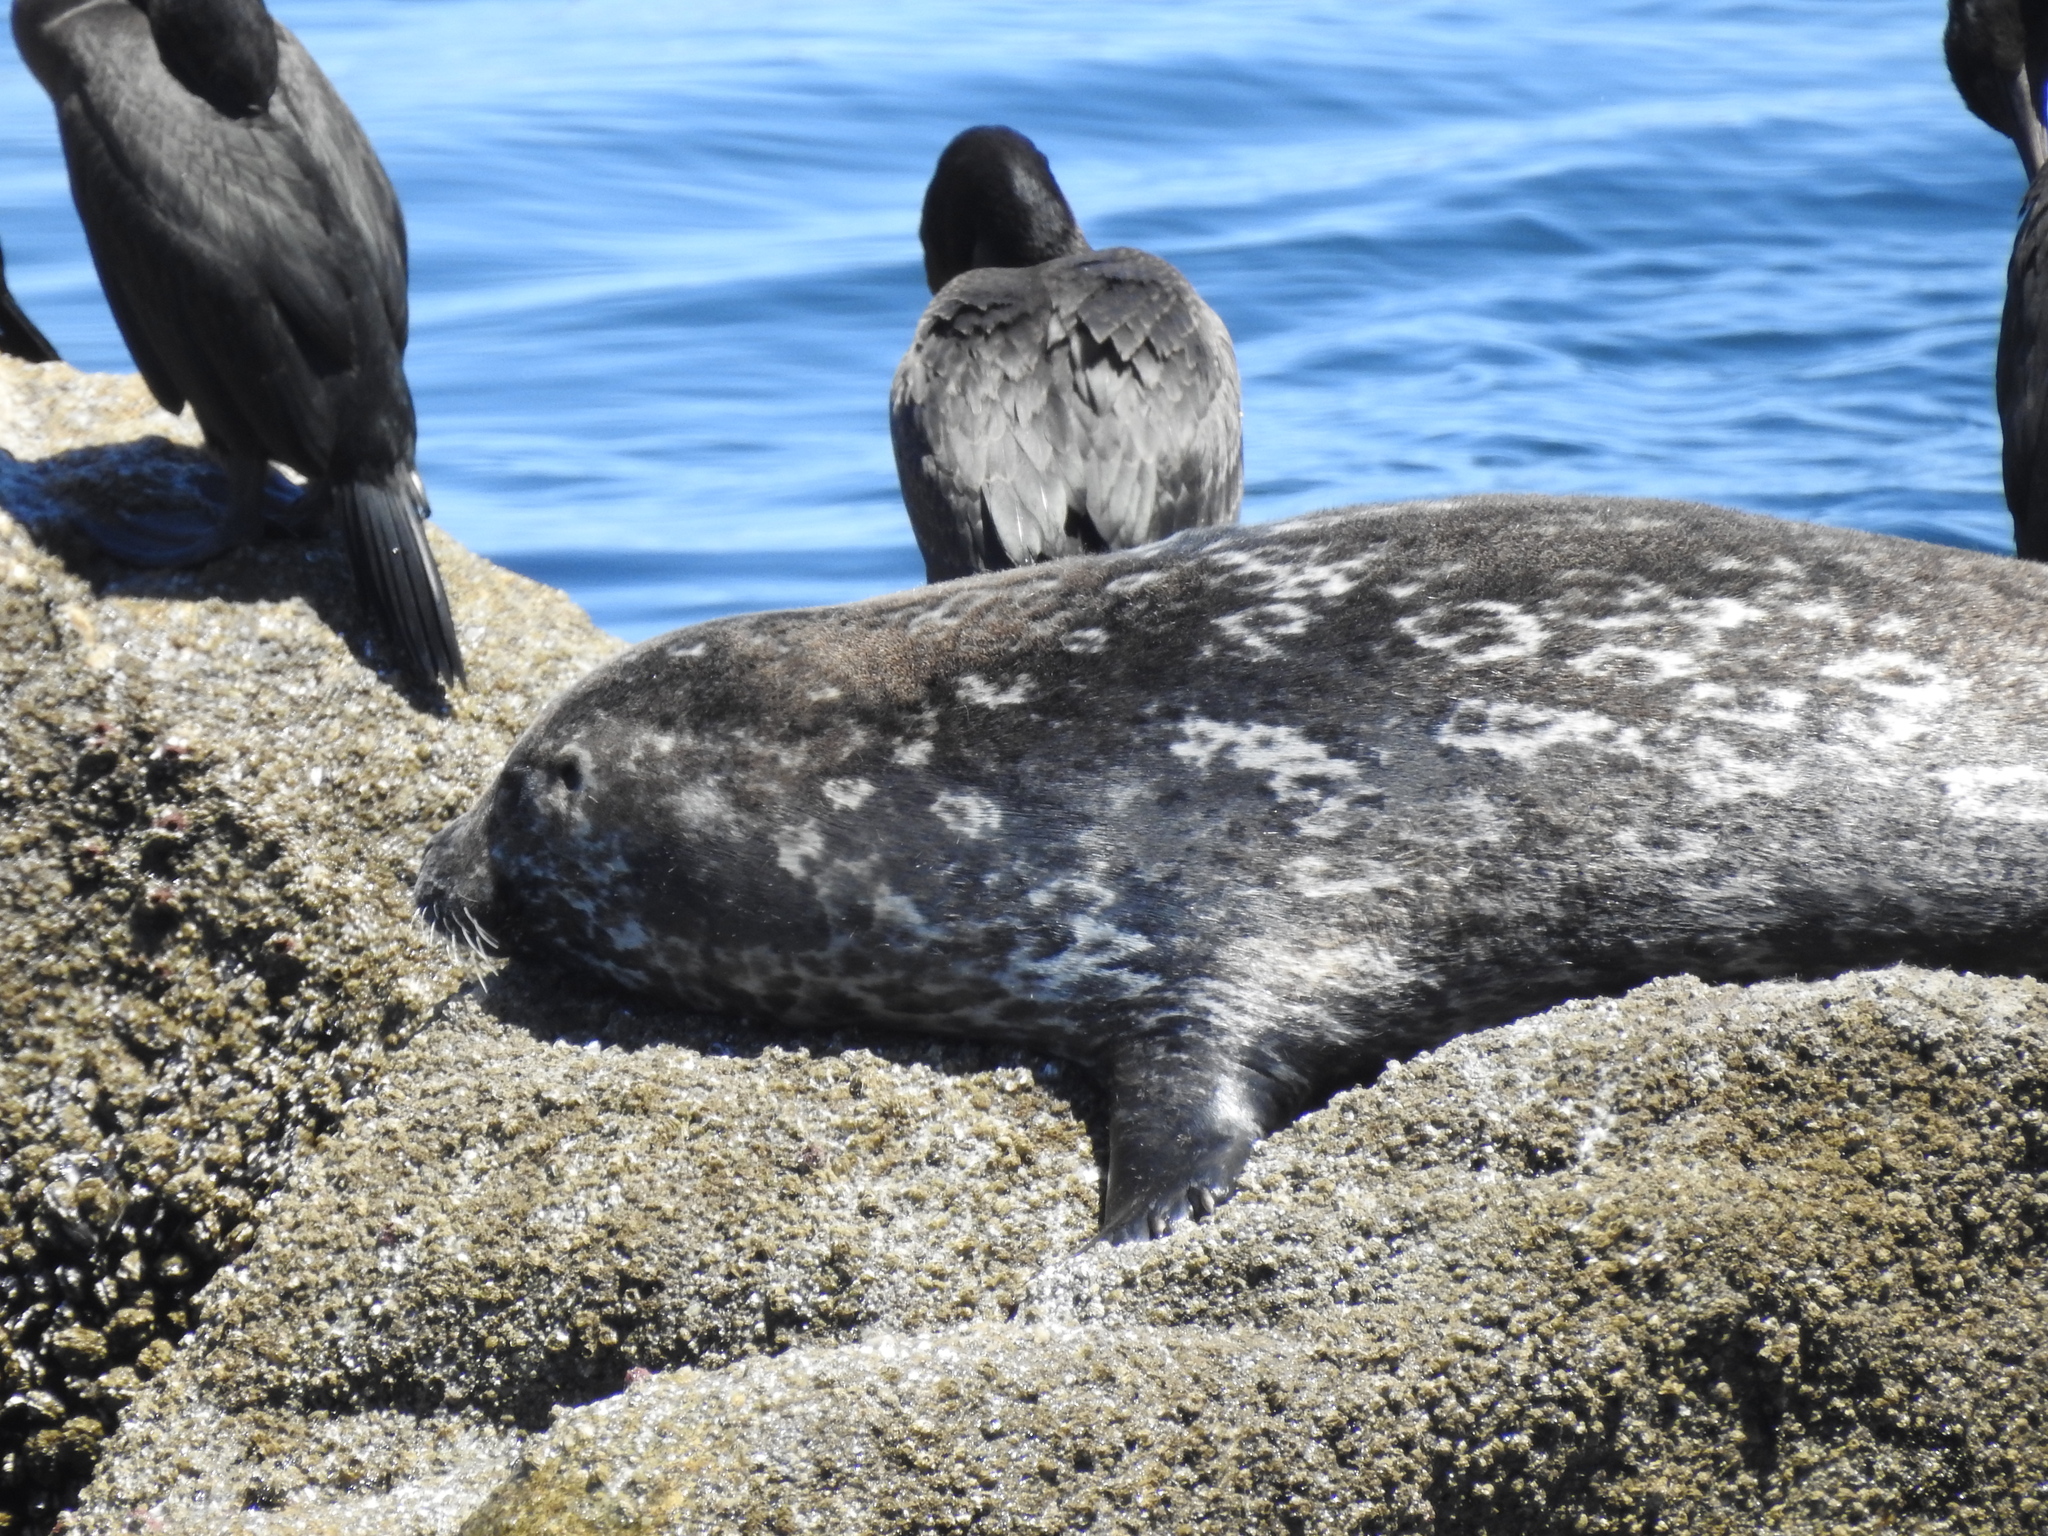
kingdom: Animalia
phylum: Chordata
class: Mammalia
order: Carnivora
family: Phocidae
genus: Phoca
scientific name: Phoca vitulina
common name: Harbor seal
